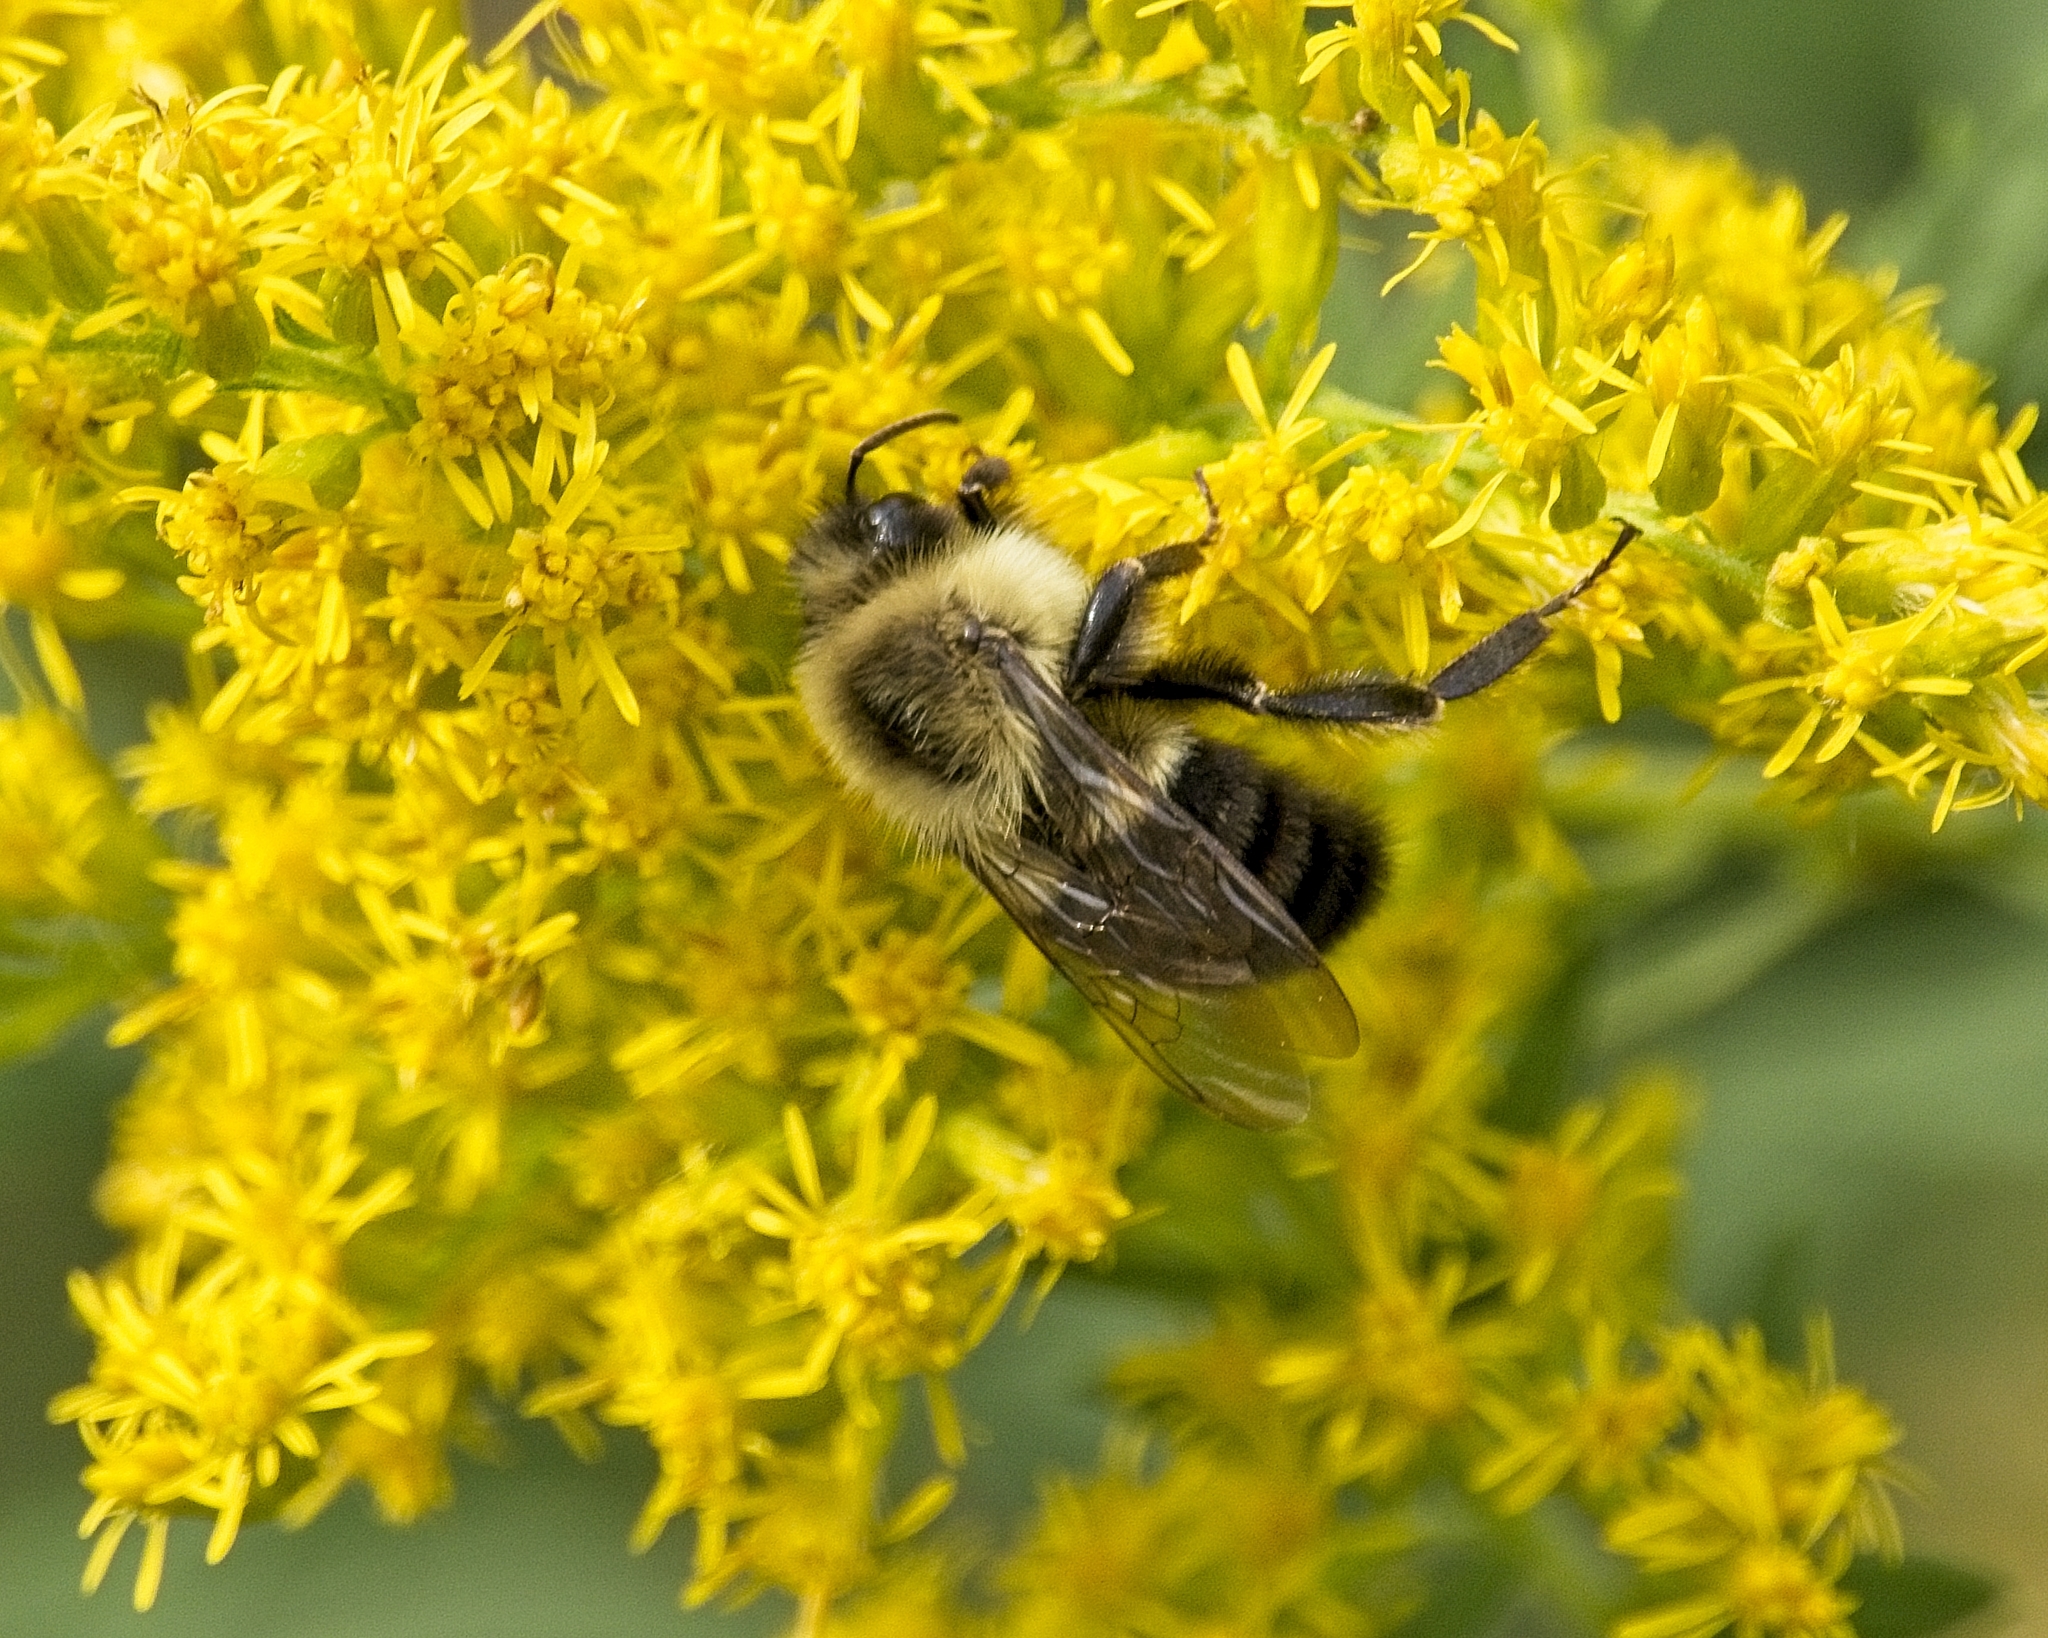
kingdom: Animalia
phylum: Arthropoda
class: Insecta
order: Hymenoptera
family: Apidae
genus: Bombus
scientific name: Bombus impatiens
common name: Common eastern bumble bee
